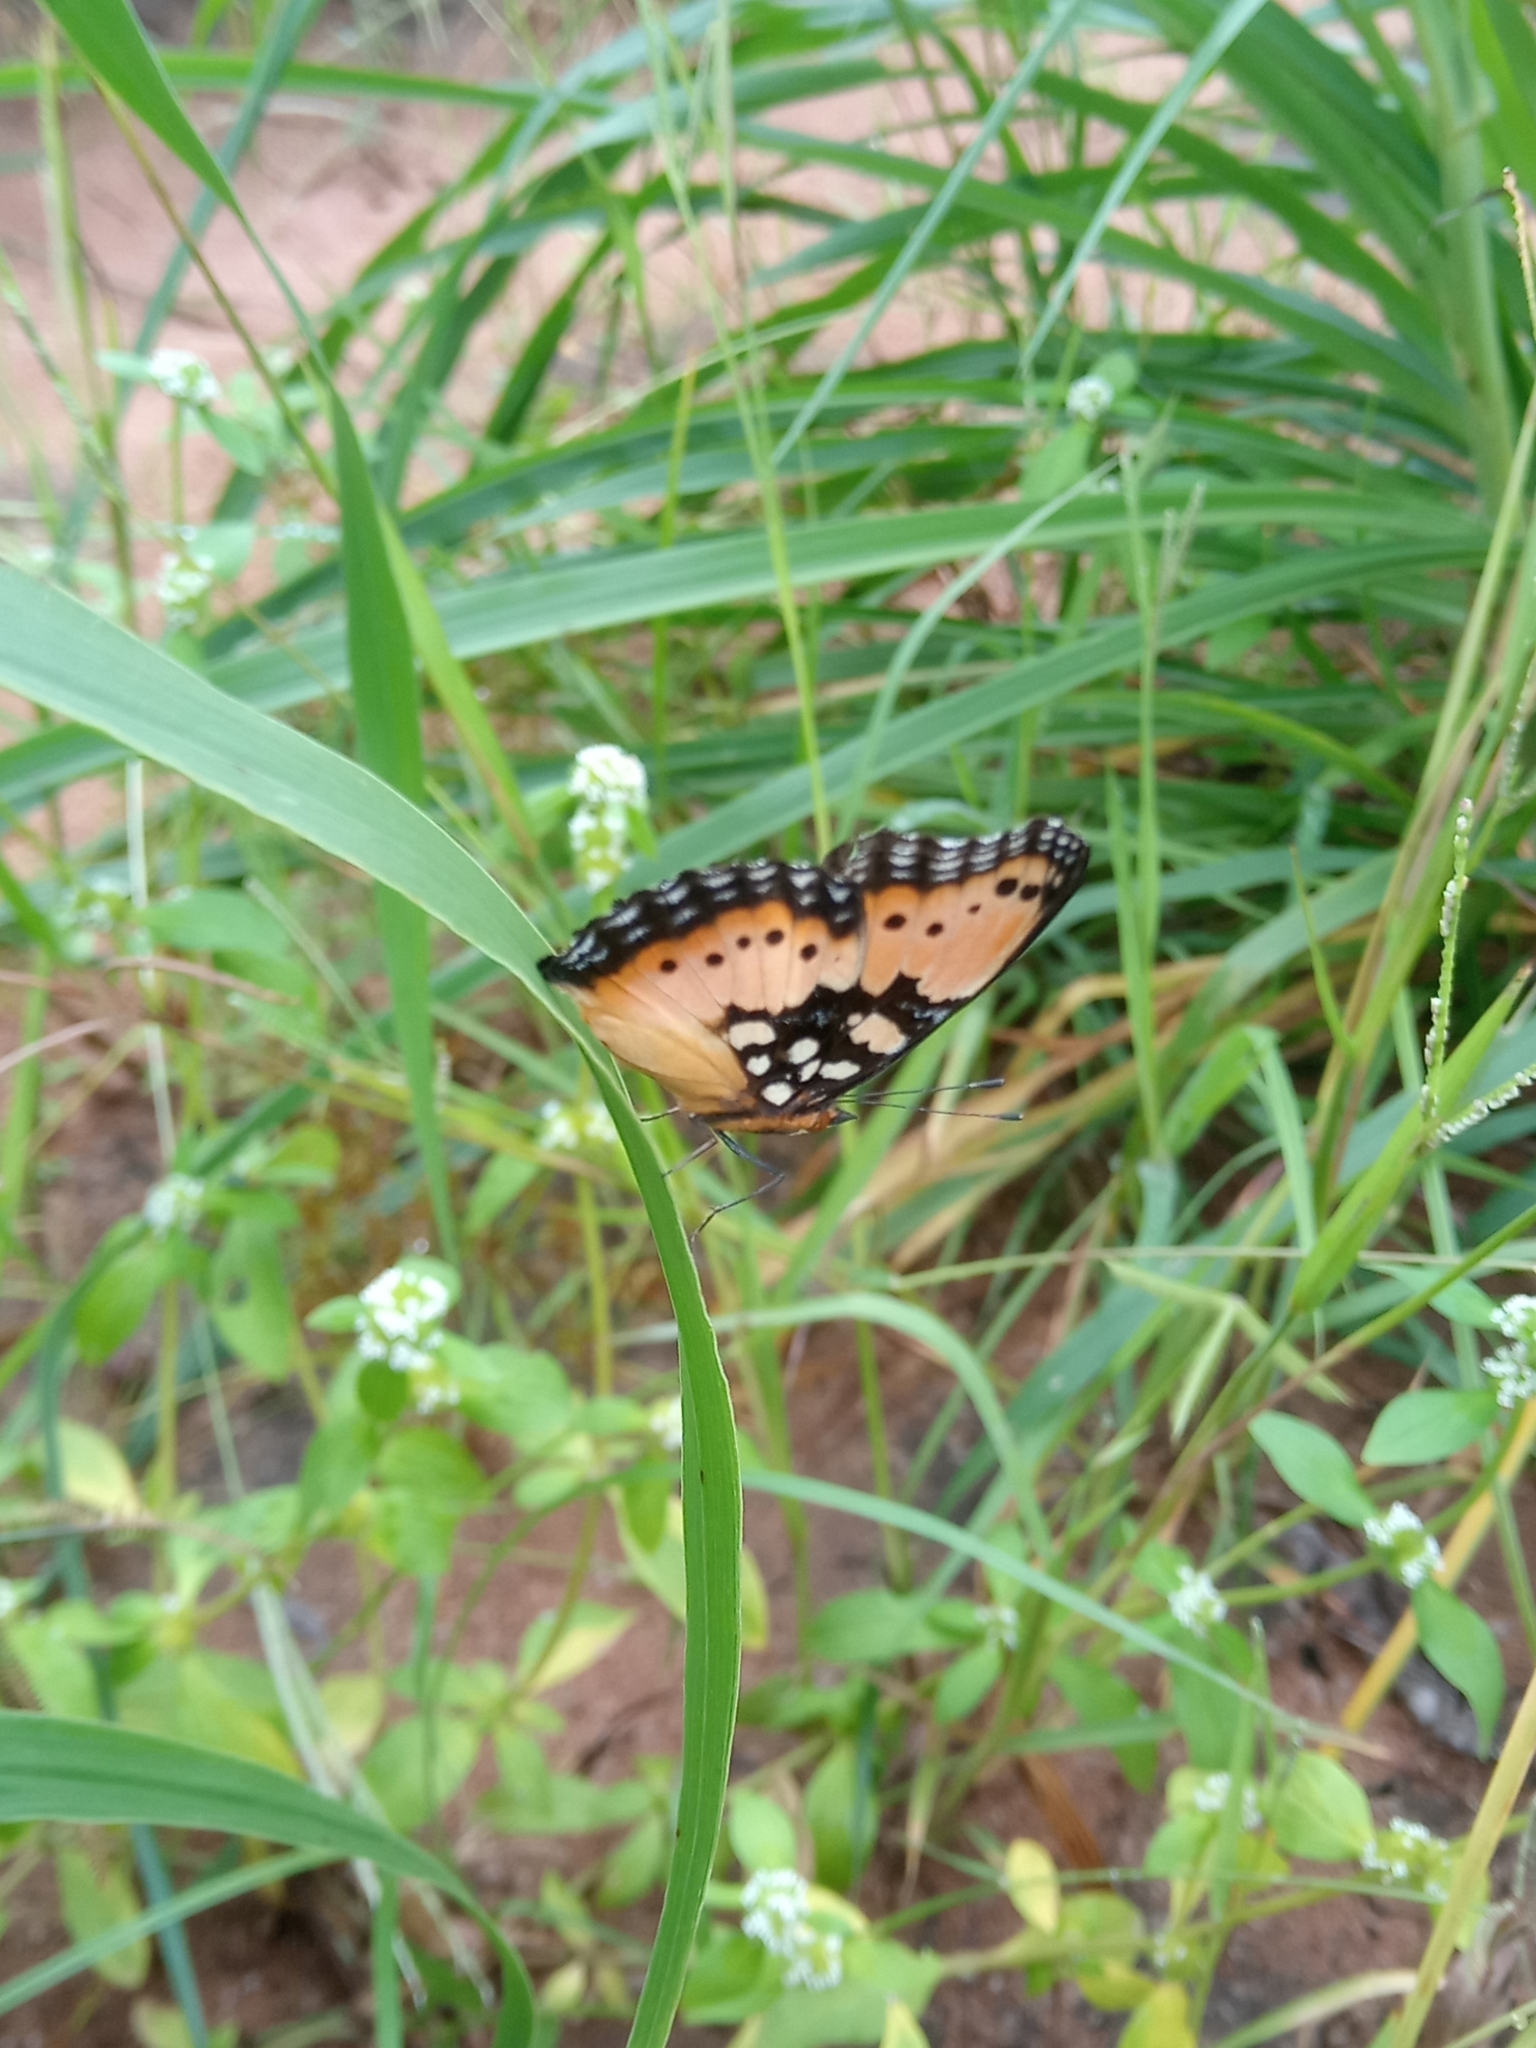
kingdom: Animalia
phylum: Arthropoda
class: Insecta
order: Lepidoptera
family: Nymphalidae
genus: Precis
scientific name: Precis octavia
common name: Gaudy commodore
